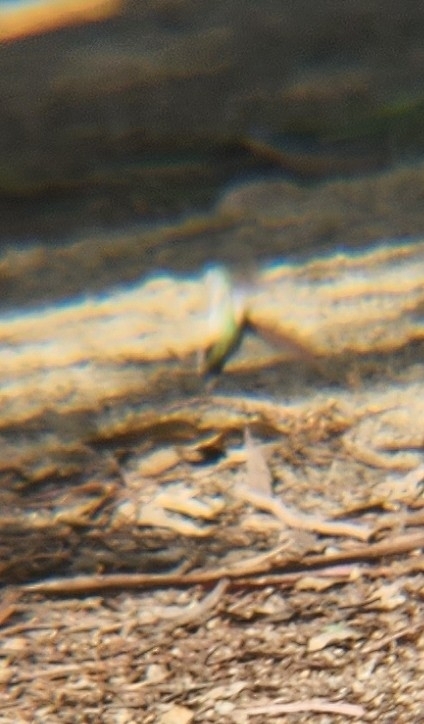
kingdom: Animalia
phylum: Chordata
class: Aves
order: Apodiformes
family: Trochilidae
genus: Calypte
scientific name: Calypte anna
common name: Anna's hummingbird
